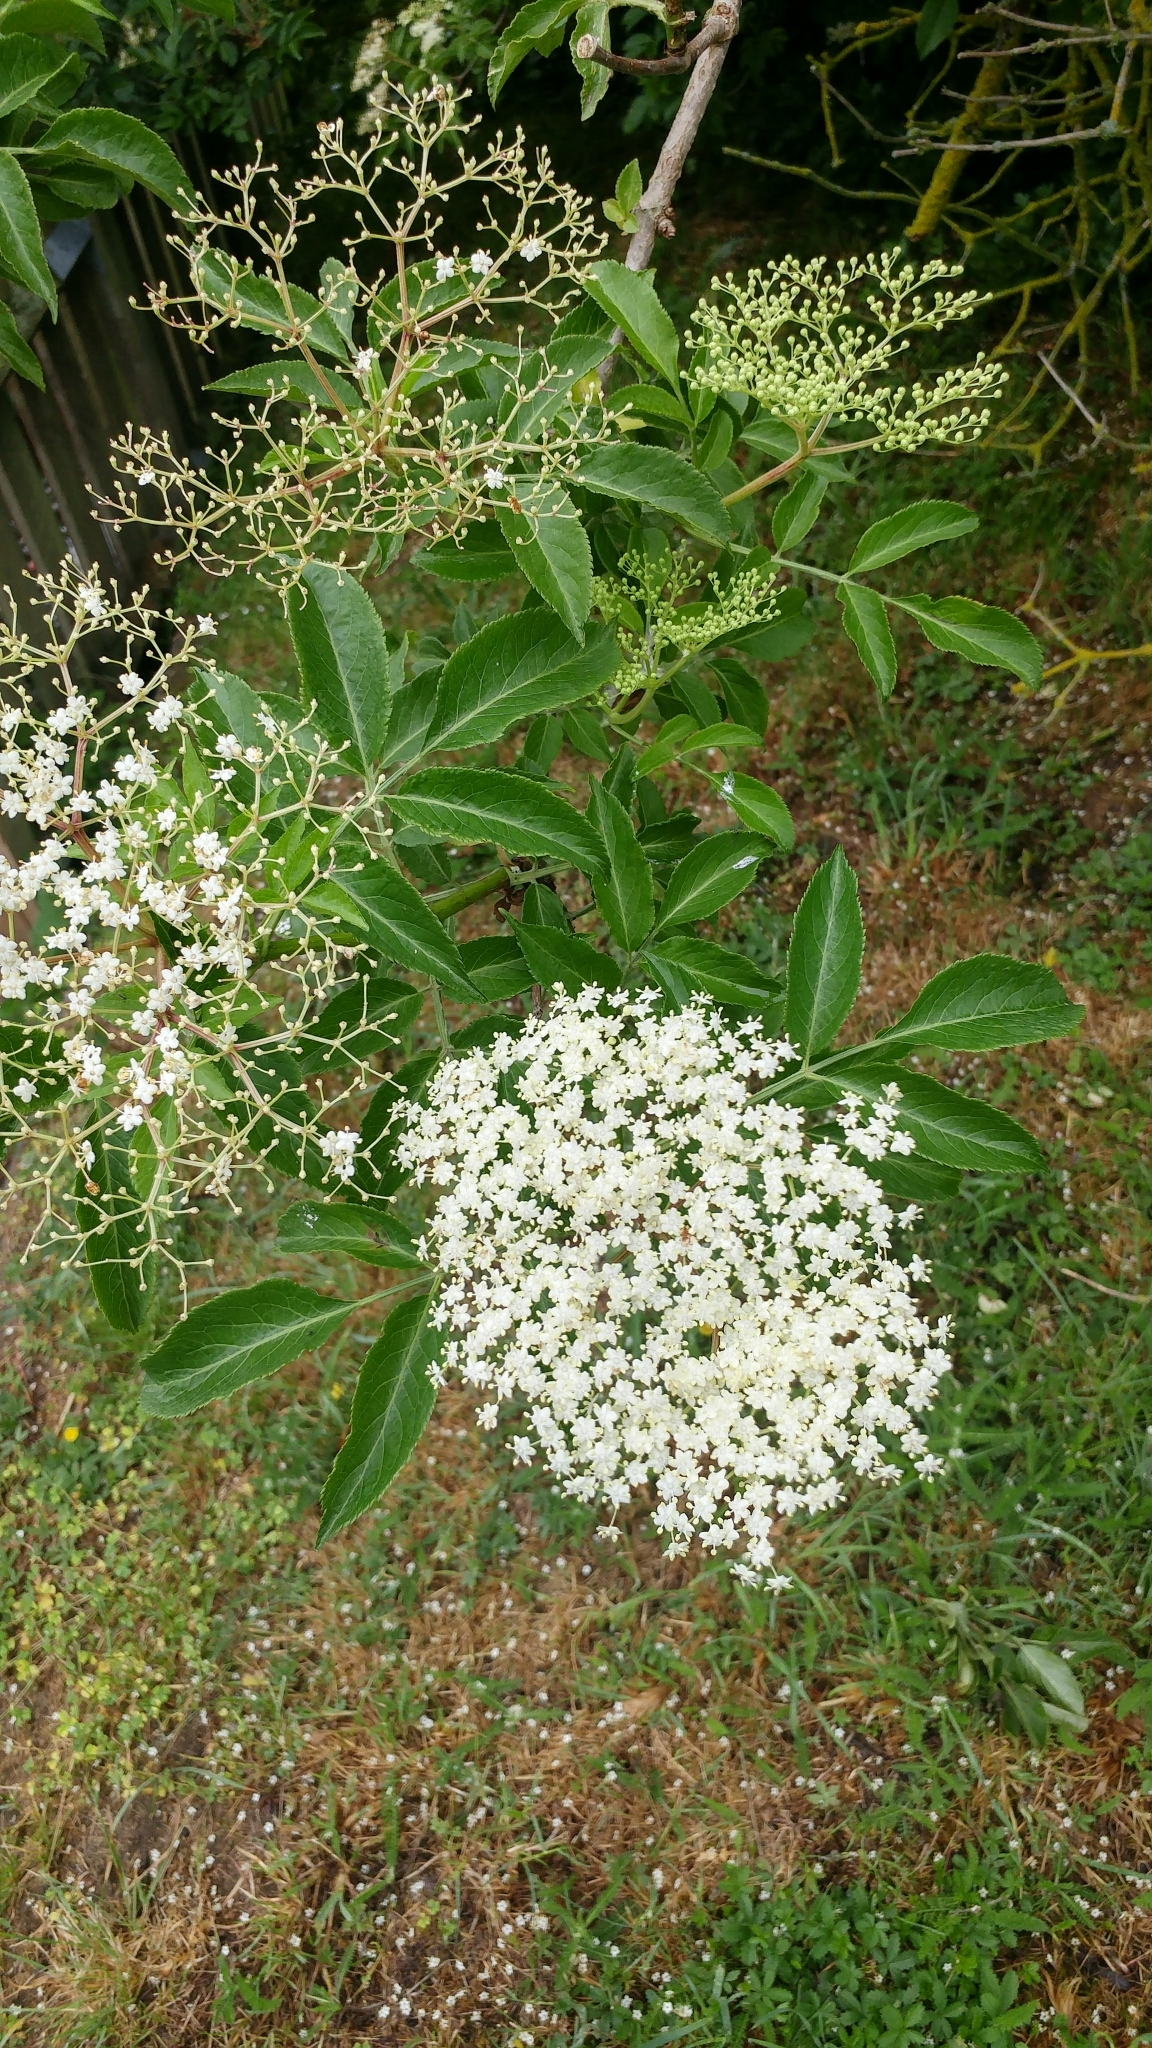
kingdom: Plantae
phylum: Tracheophyta
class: Magnoliopsida
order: Dipsacales
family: Viburnaceae
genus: Sambucus
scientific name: Sambucus nigra
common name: Elder
